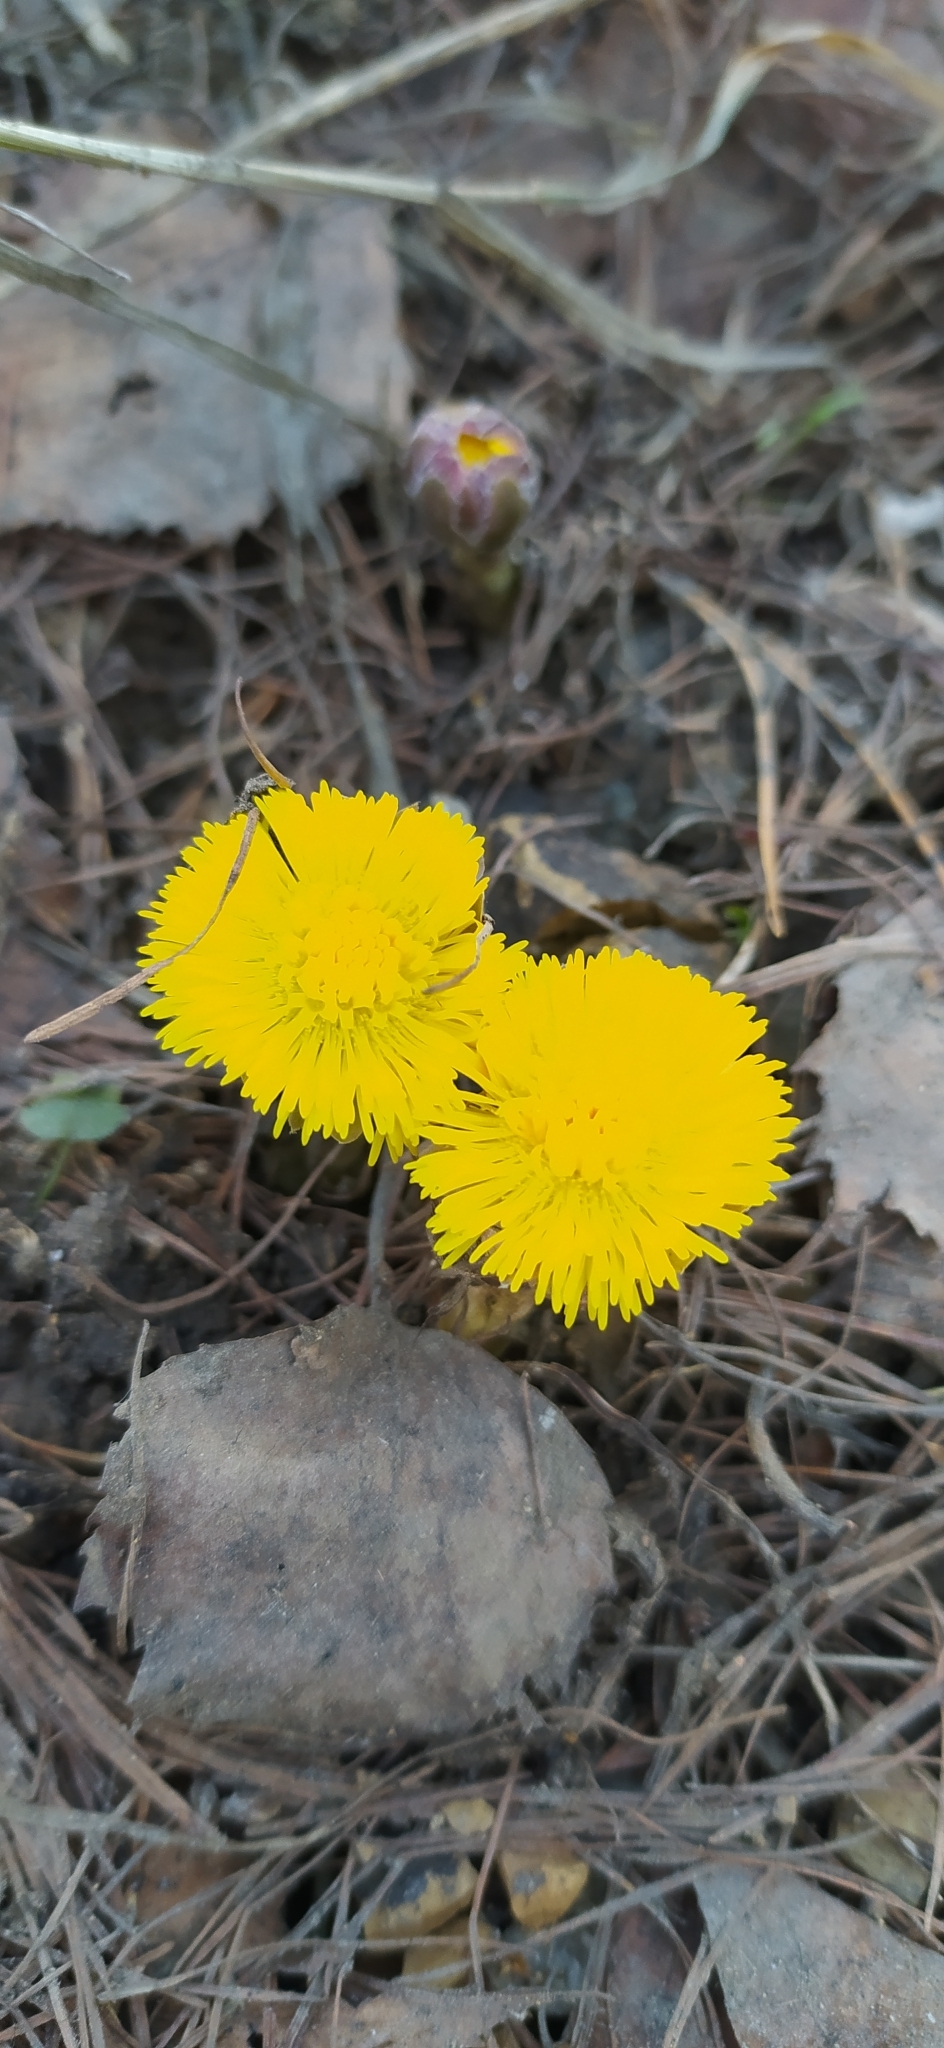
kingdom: Plantae
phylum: Tracheophyta
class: Magnoliopsida
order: Asterales
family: Asteraceae
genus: Tussilago
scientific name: Tussilago farfara
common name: Coltsfoot
